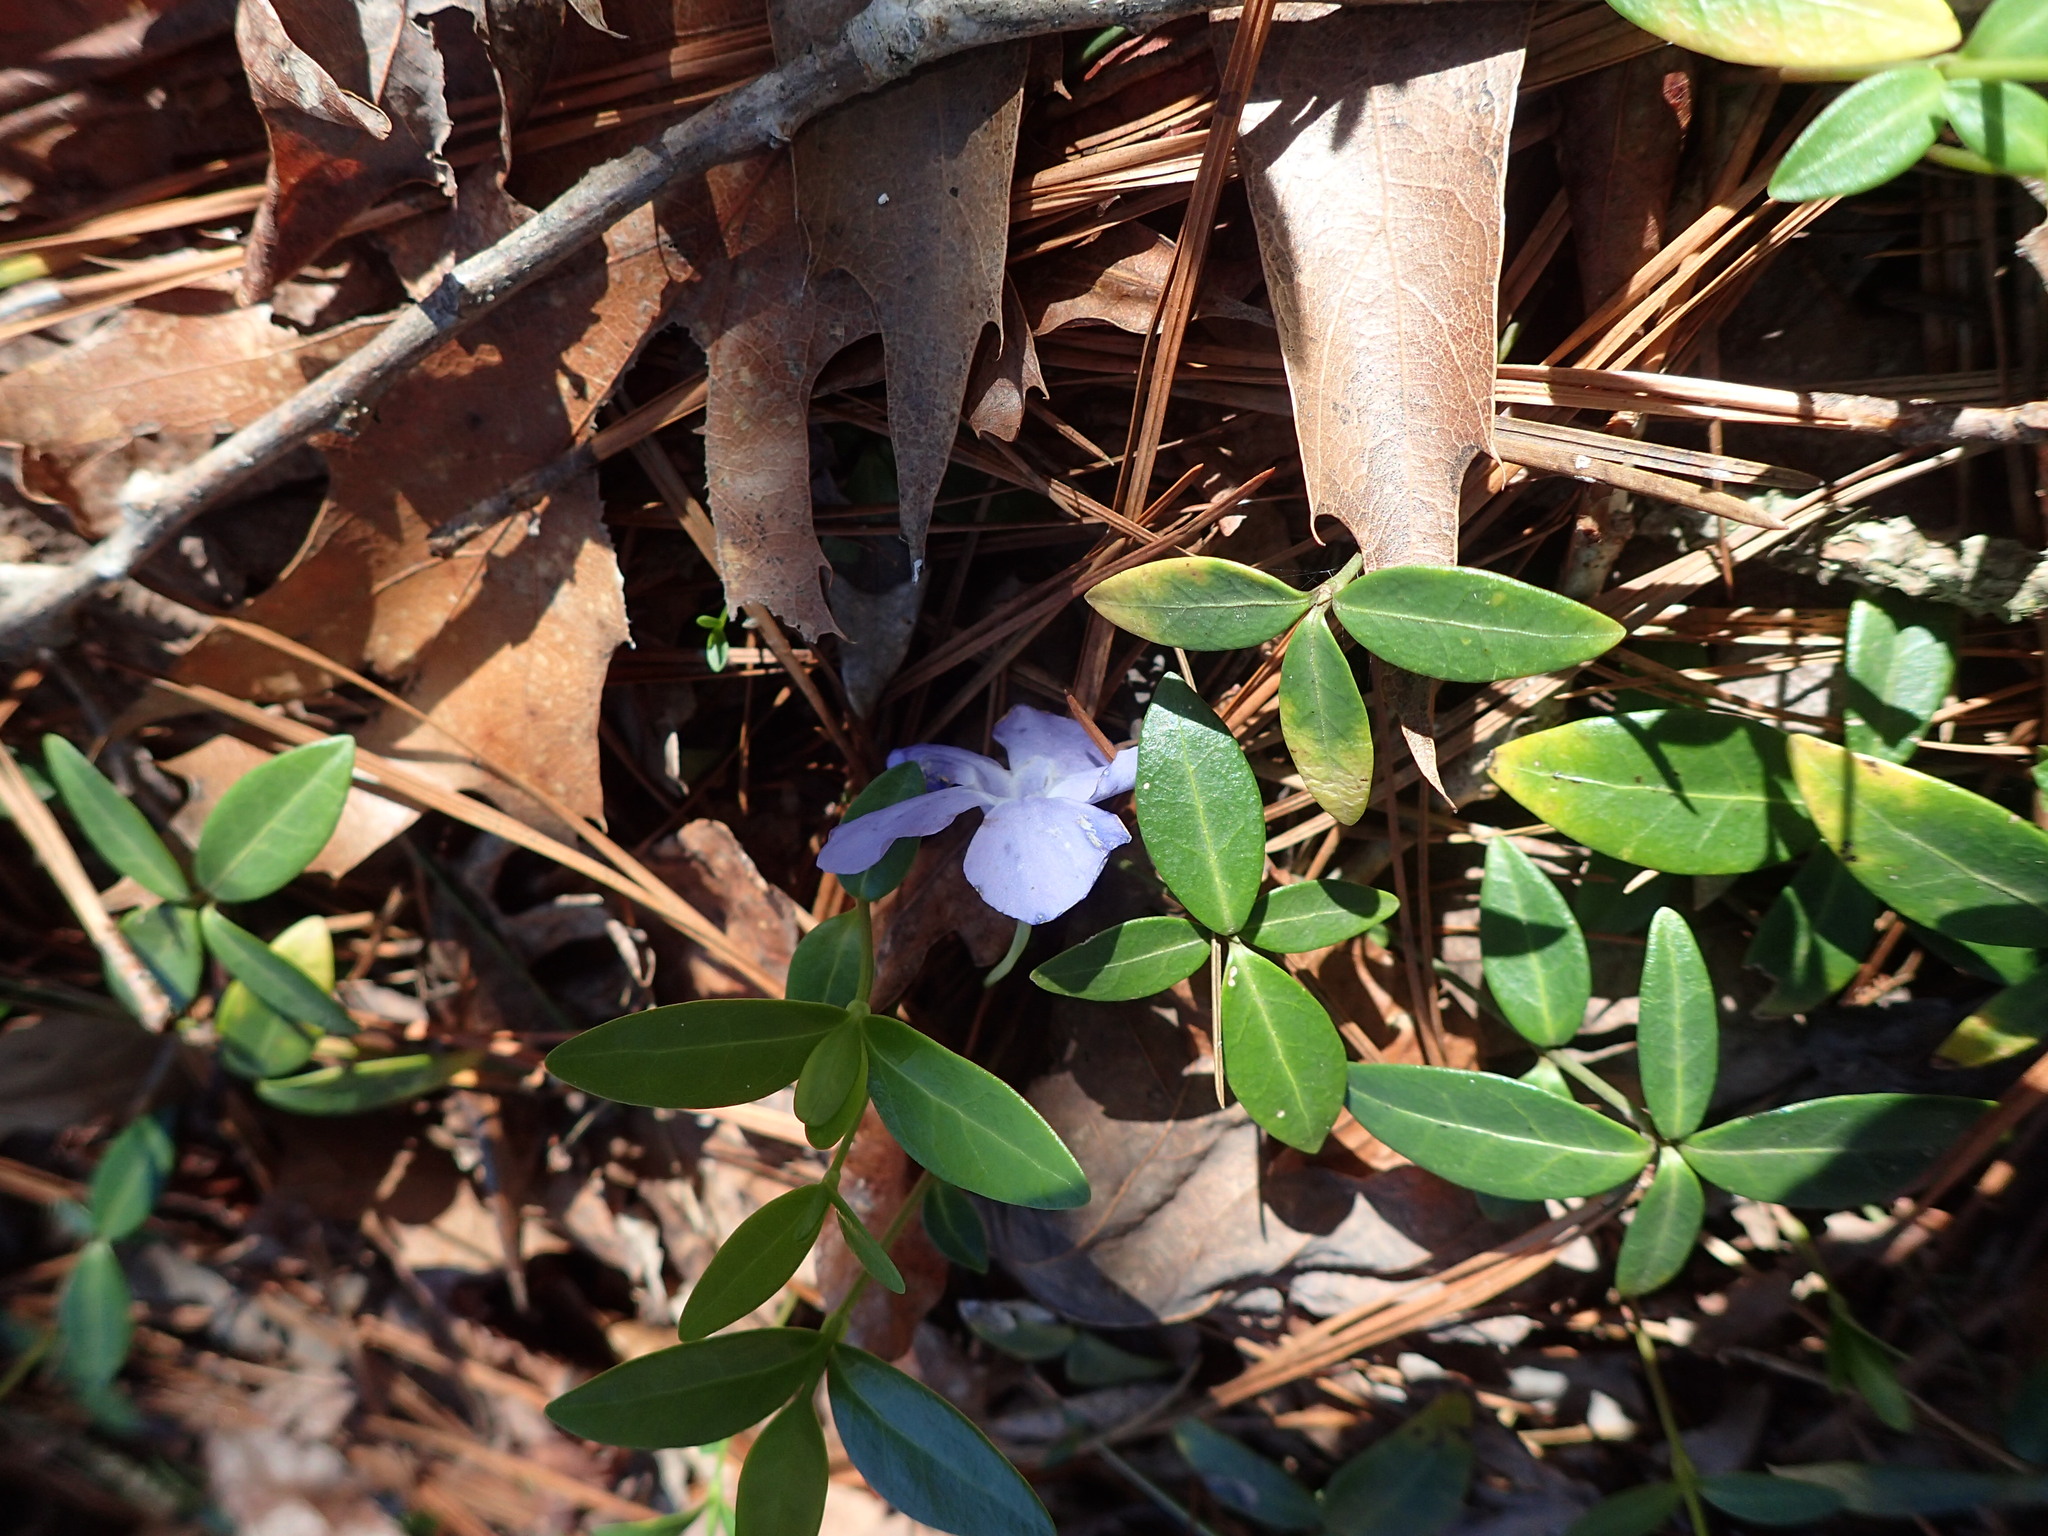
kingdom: Plantae
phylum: Tracheophyta
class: Magnoliopsida
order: Gentianales
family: Apocynaceae
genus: Vinca
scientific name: Vinca minor
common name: Lesser periwinkle
